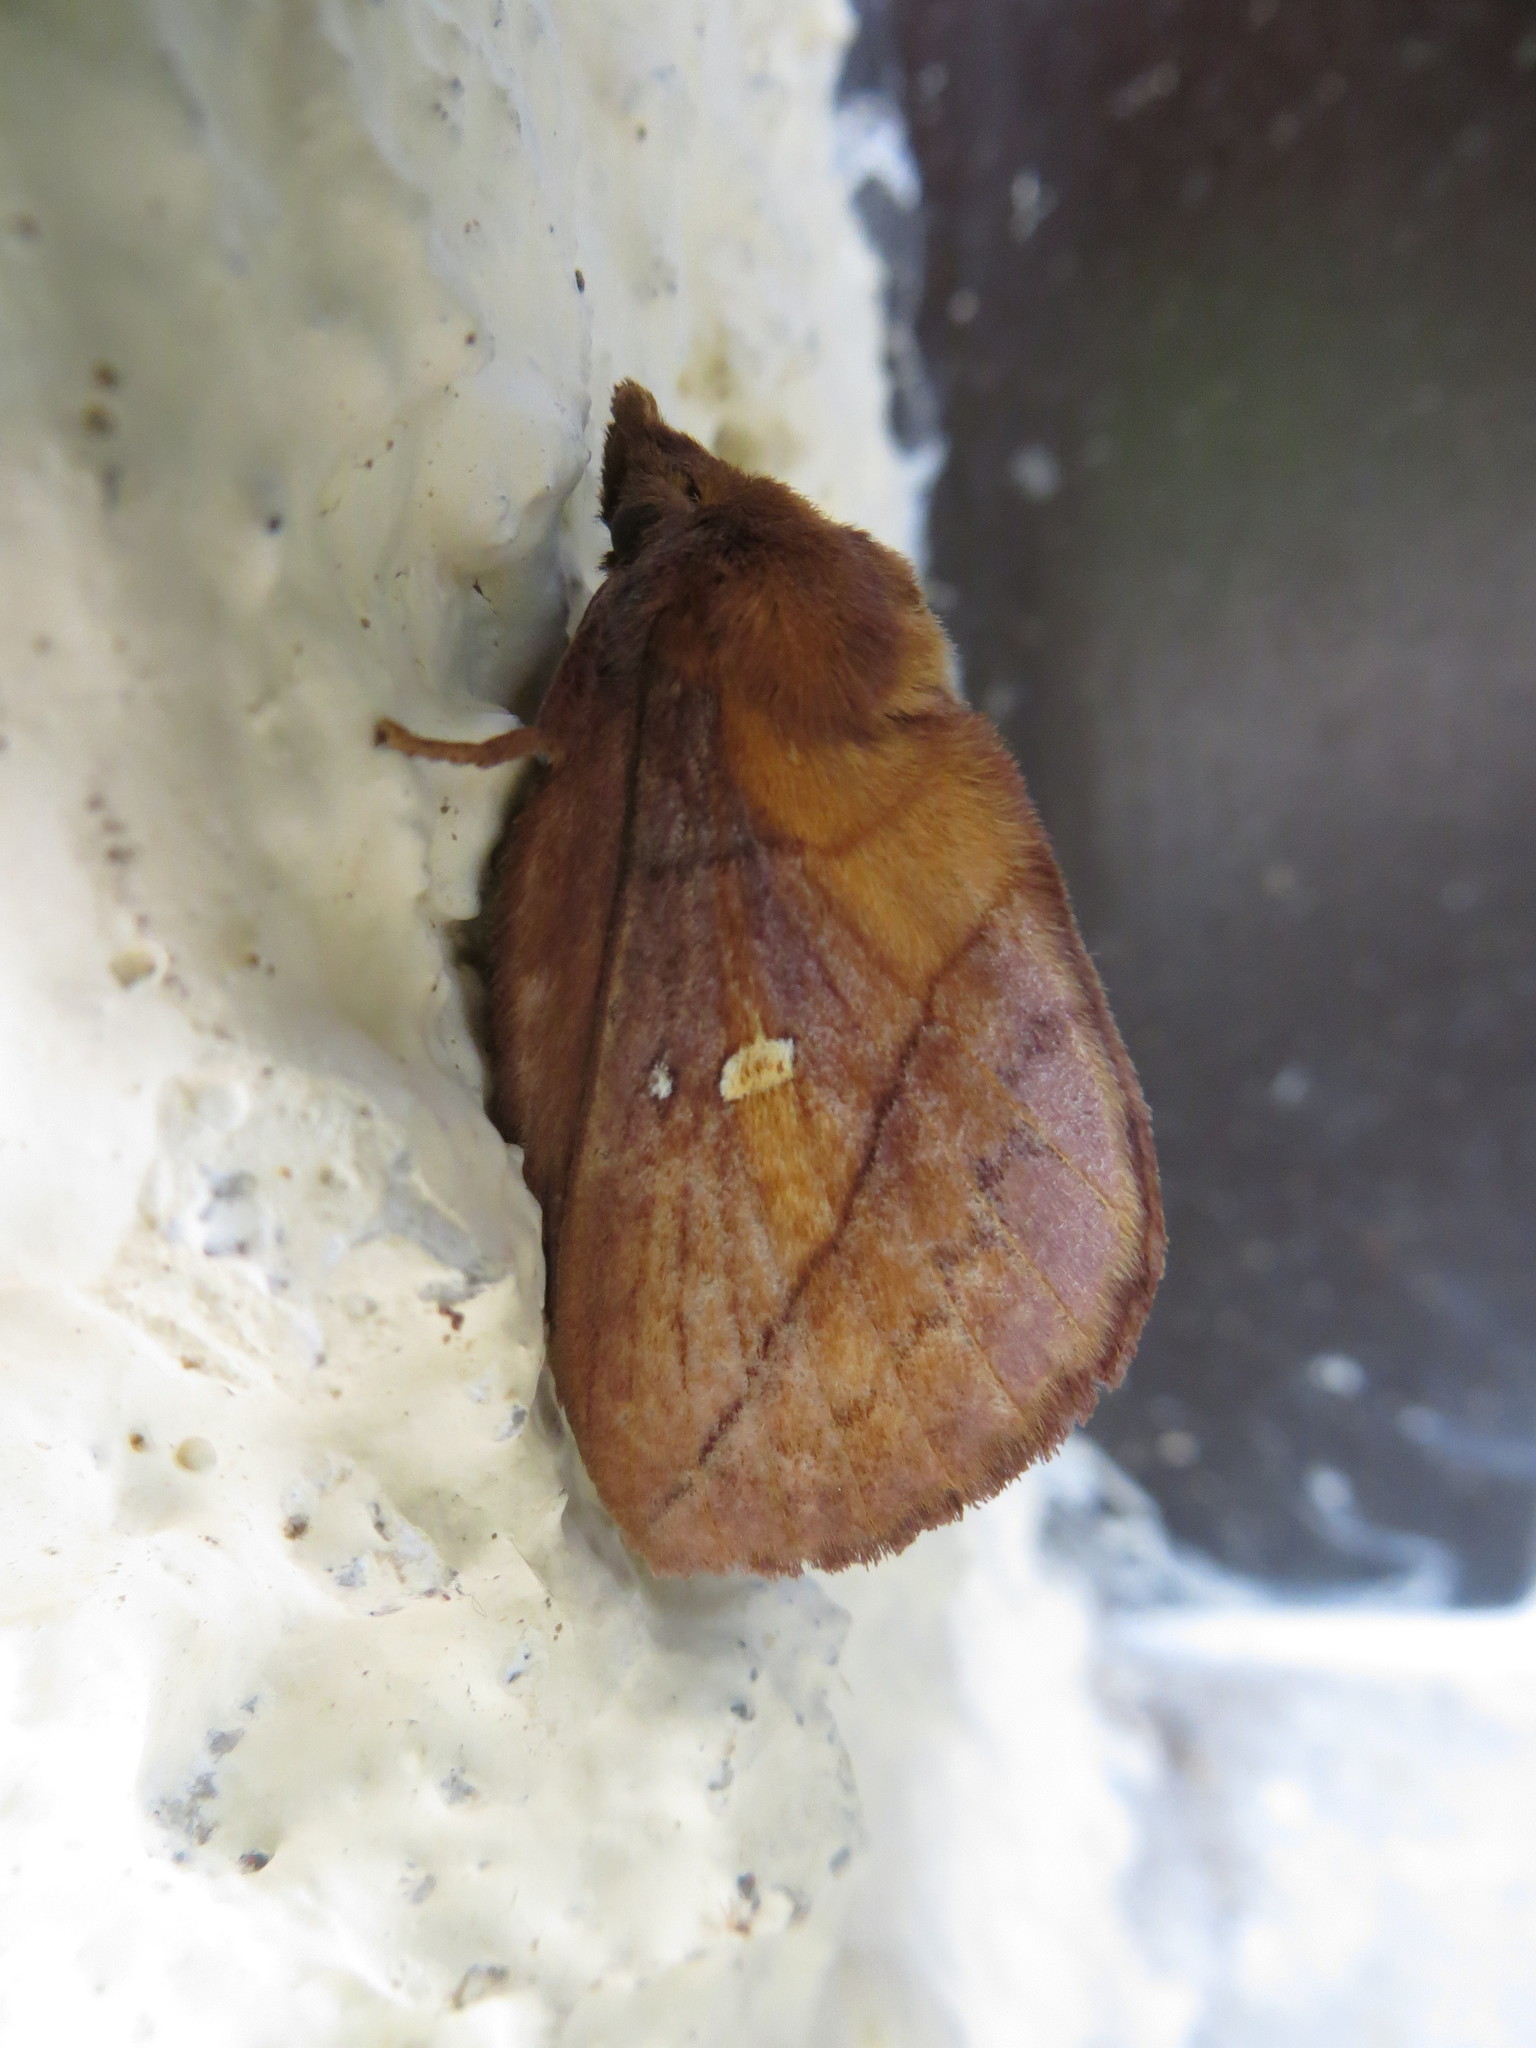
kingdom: Animalia
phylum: Arthropoda
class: Insecta
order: Lepidoptera
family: Lasiocampidae
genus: Euthrix
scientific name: Euthrix potatoria
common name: Drinker
